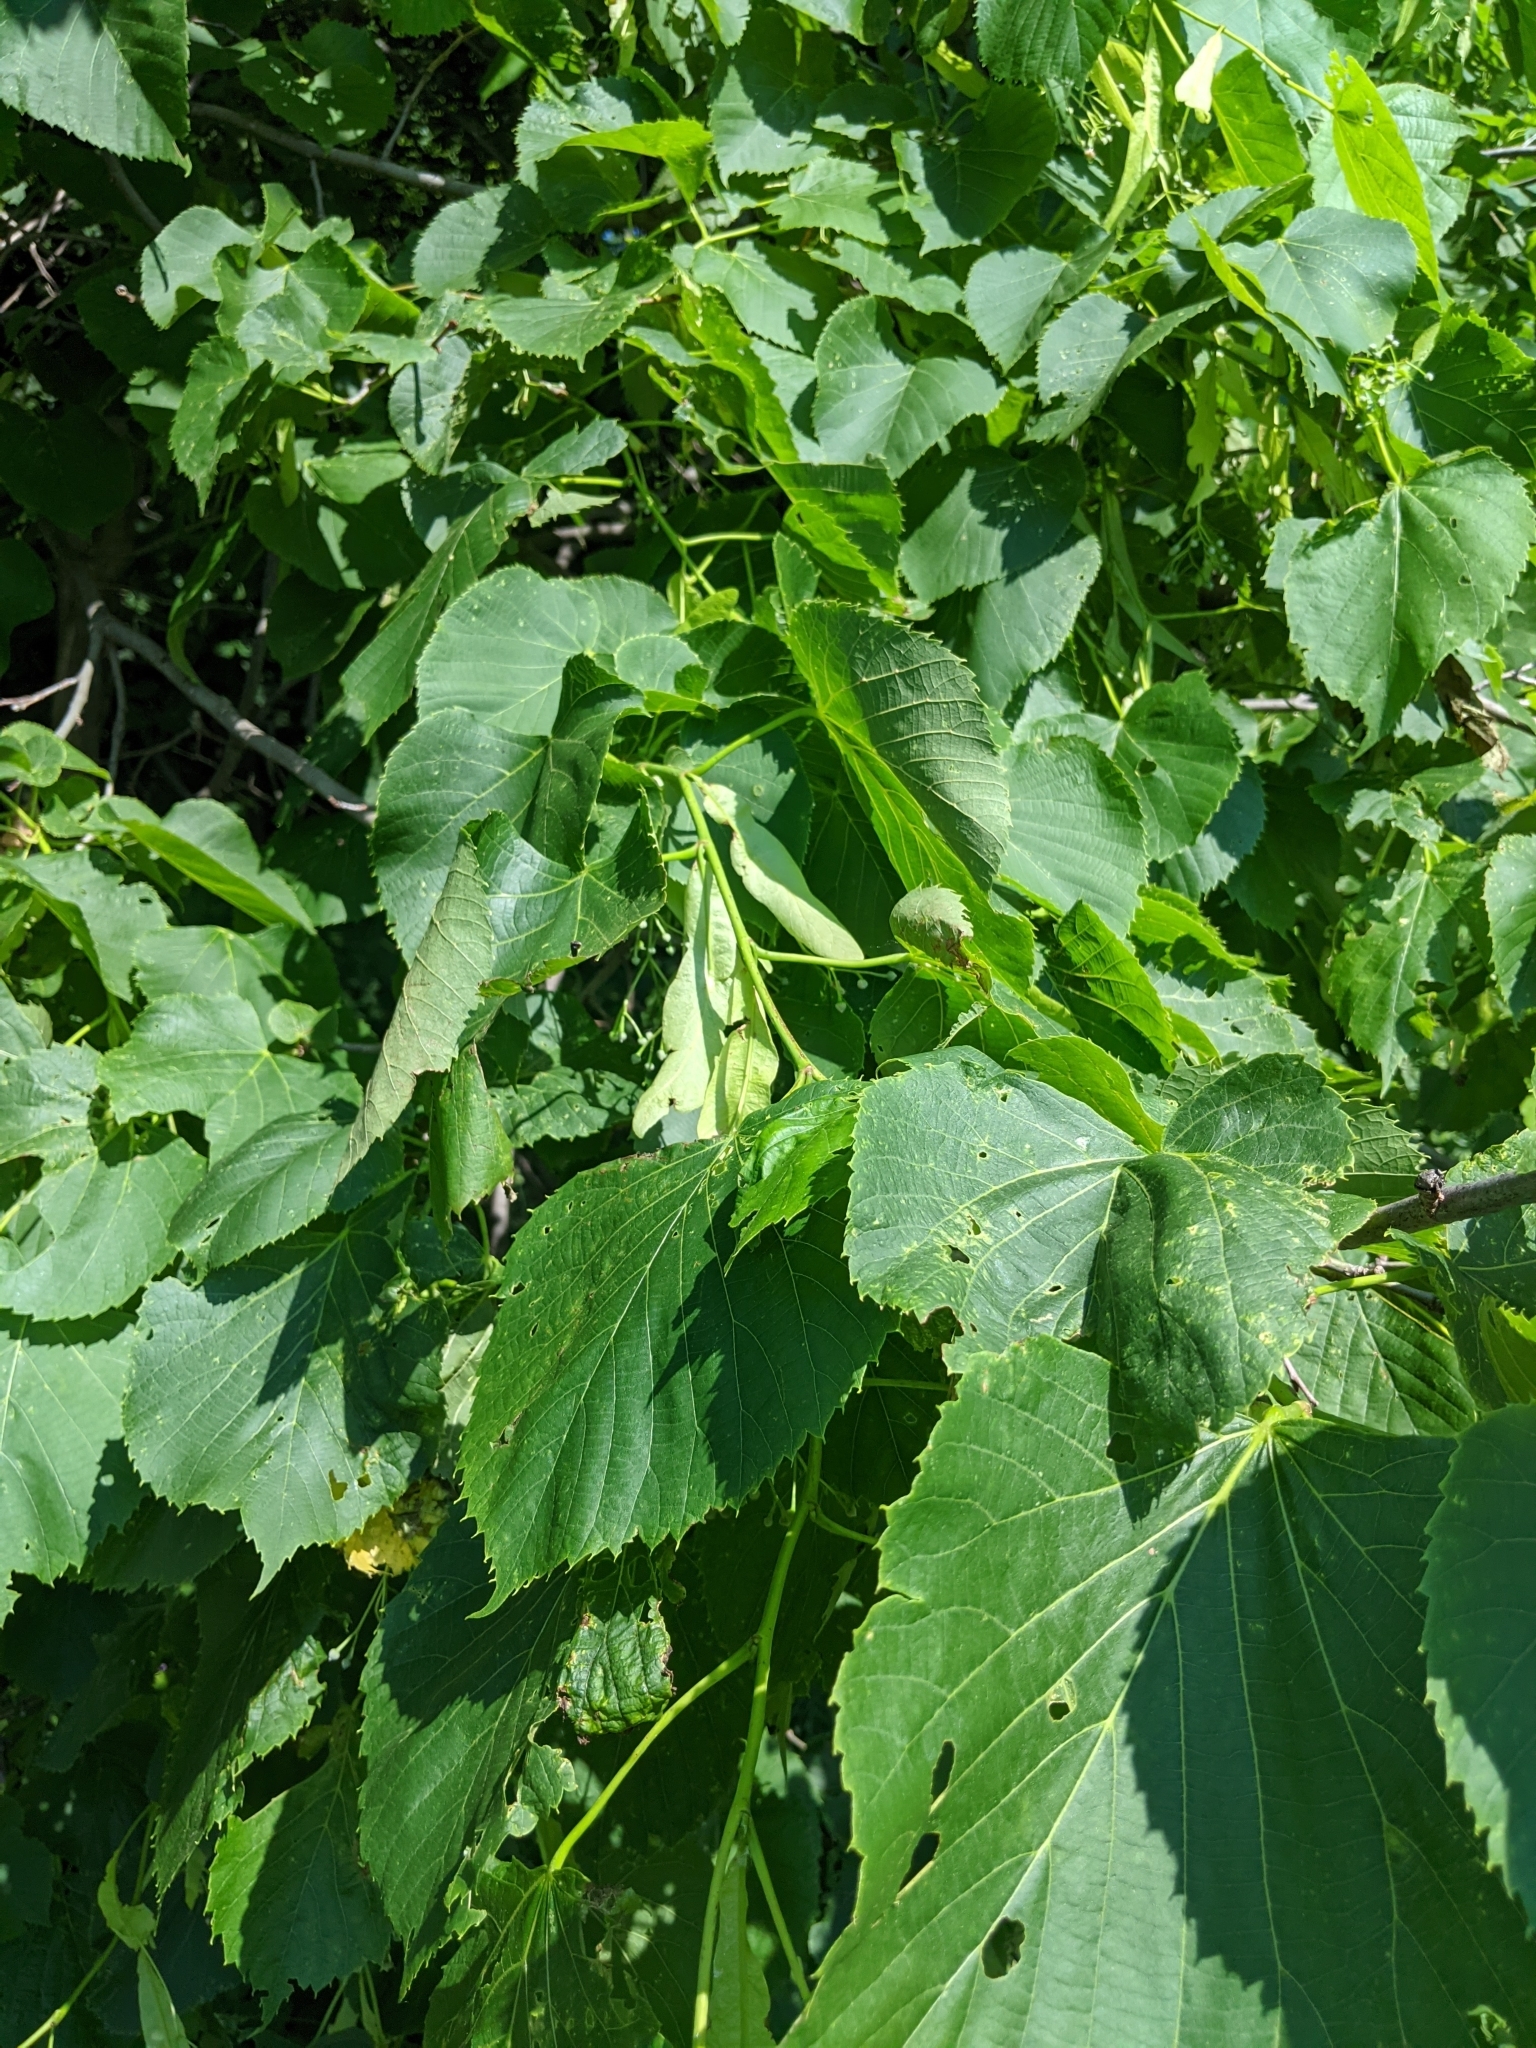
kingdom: Plantae
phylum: Tracheophyta
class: Magnoliopsida
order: Malvales
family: Malvaceae
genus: Tilia
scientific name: Tilia americana
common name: Basswood
